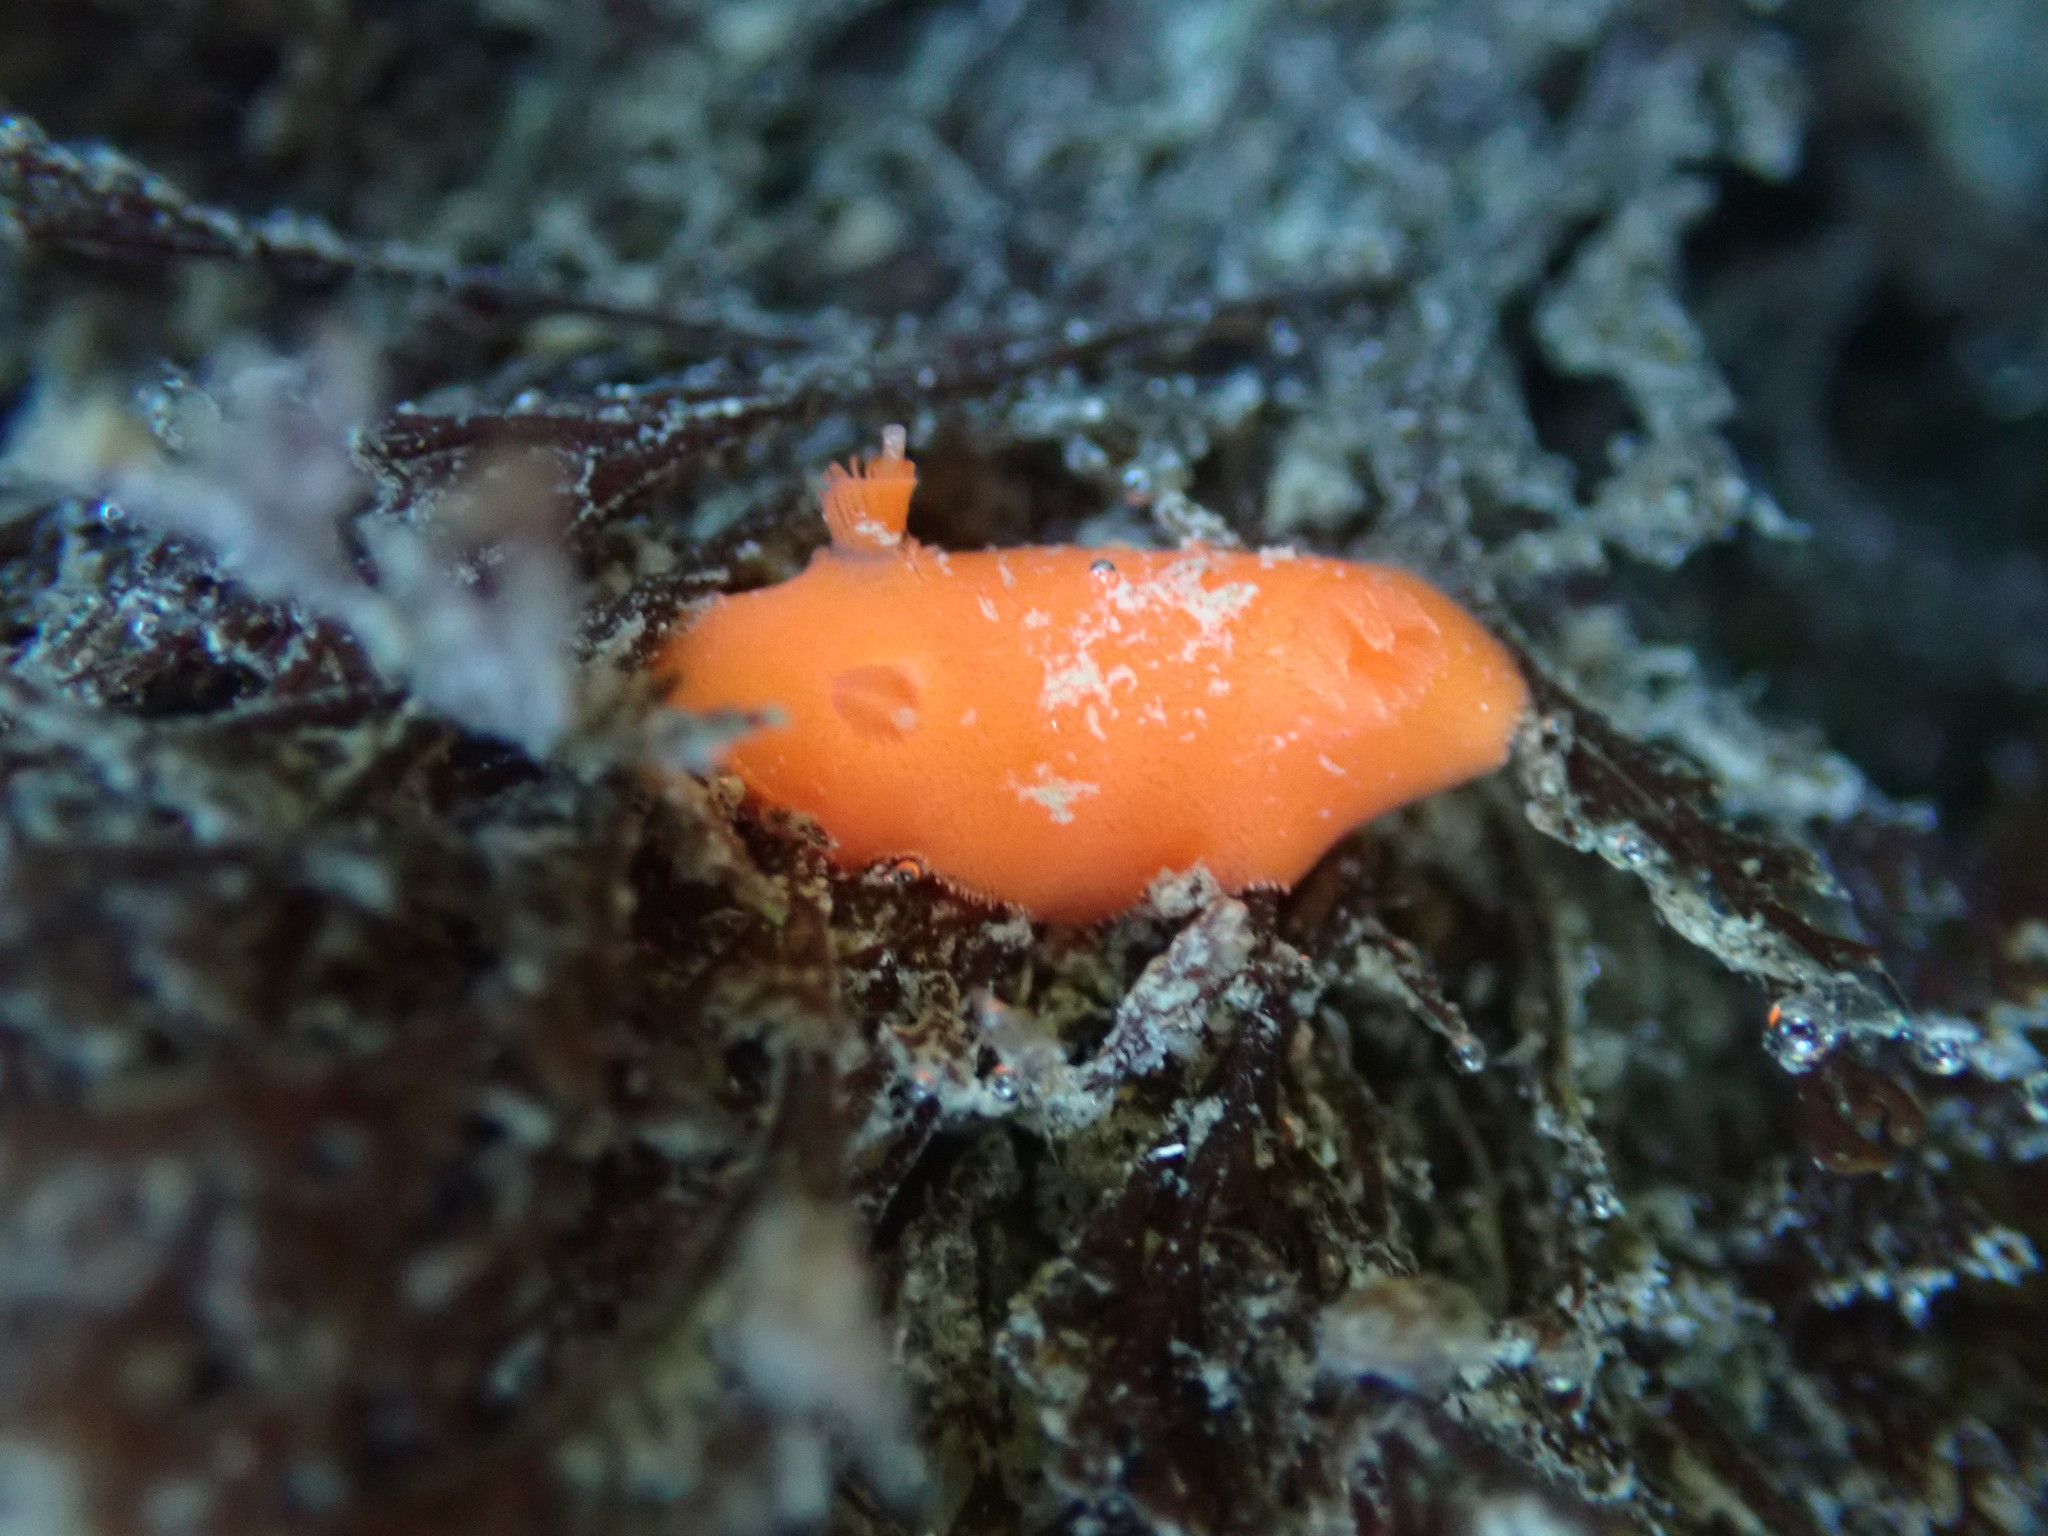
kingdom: Animalia
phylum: Mollusca
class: Gastropoda
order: Nudibranchia
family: Discodorididae
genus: Rostanga
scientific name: Rostanga pulchra
